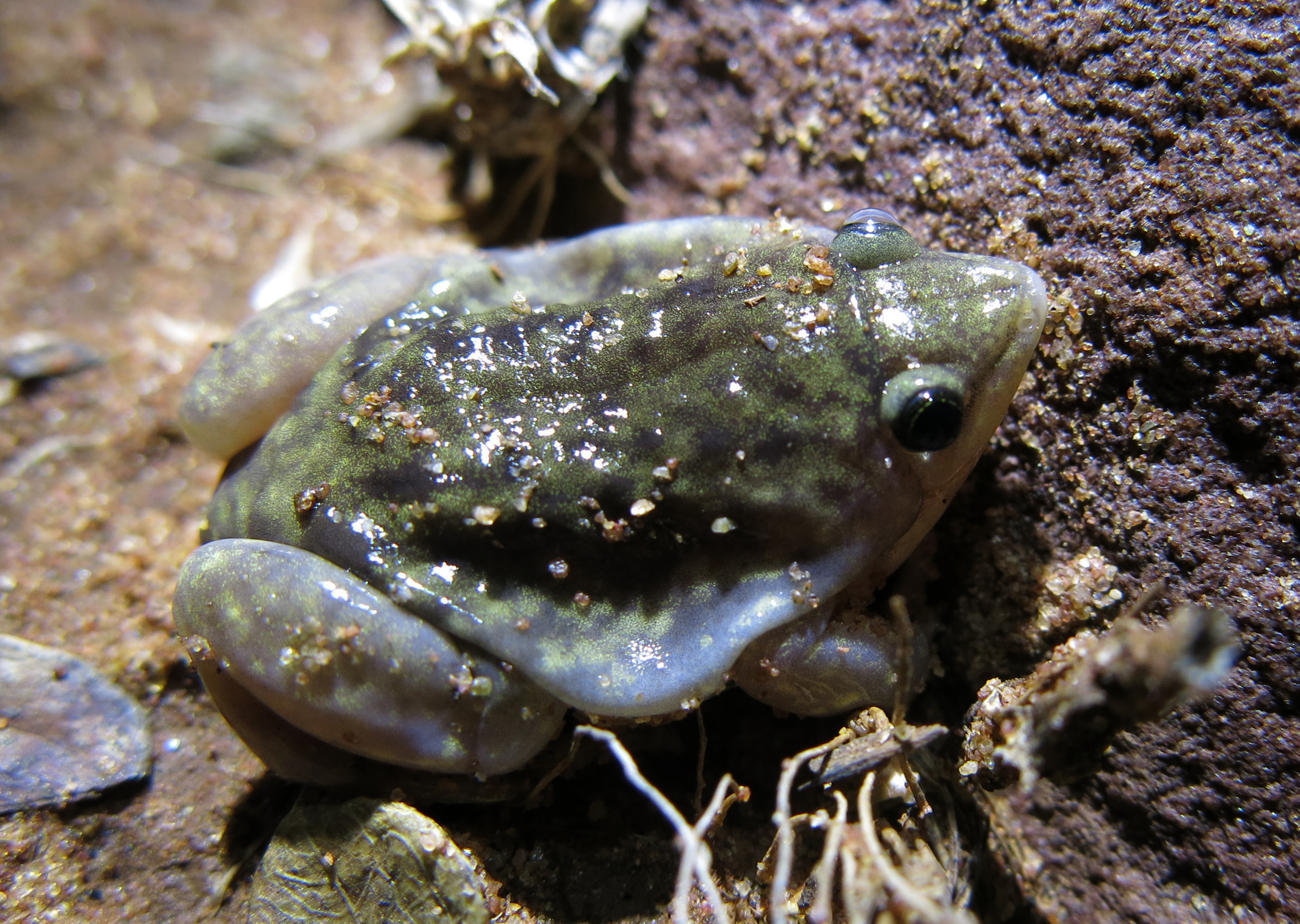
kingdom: Animalia
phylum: Chordata
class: Amphibia
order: Anura
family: Hemisotidae
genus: Hemisus
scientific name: Hemisus marmoratus
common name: Mottled shovel-nosed frog
